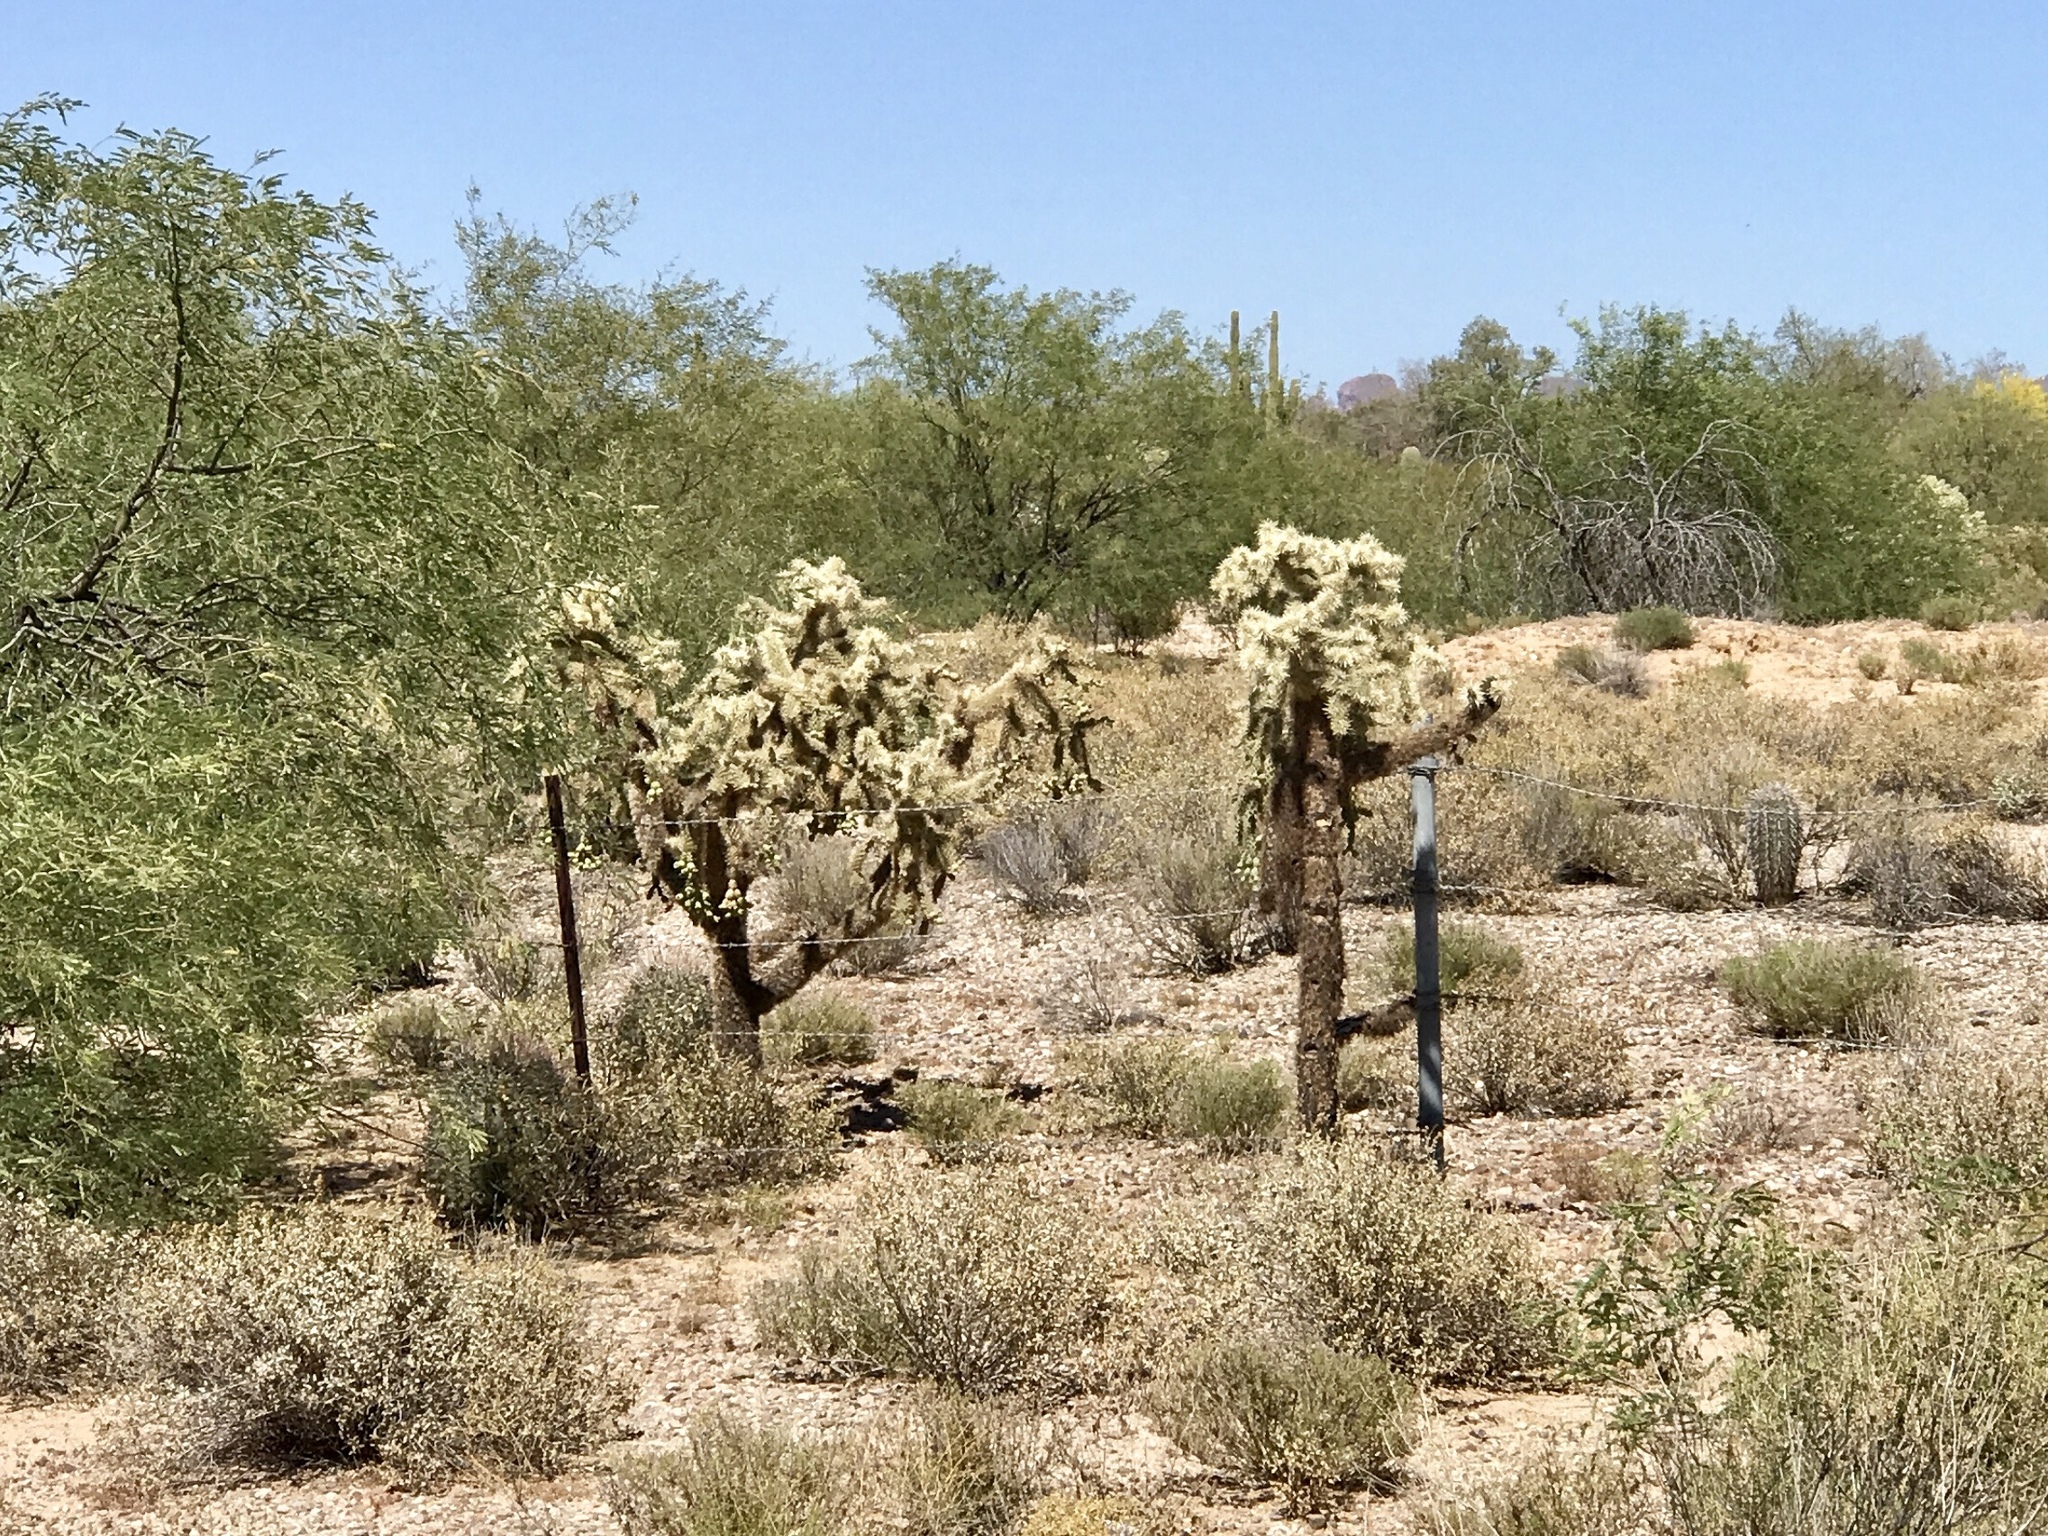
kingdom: Plantae
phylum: Tracheophyta
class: Magnoliopsida
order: Caryophyllales
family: Cactaceae
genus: Cylindropuntia
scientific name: Cylindropuntia fulgida
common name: Jumping cholla
